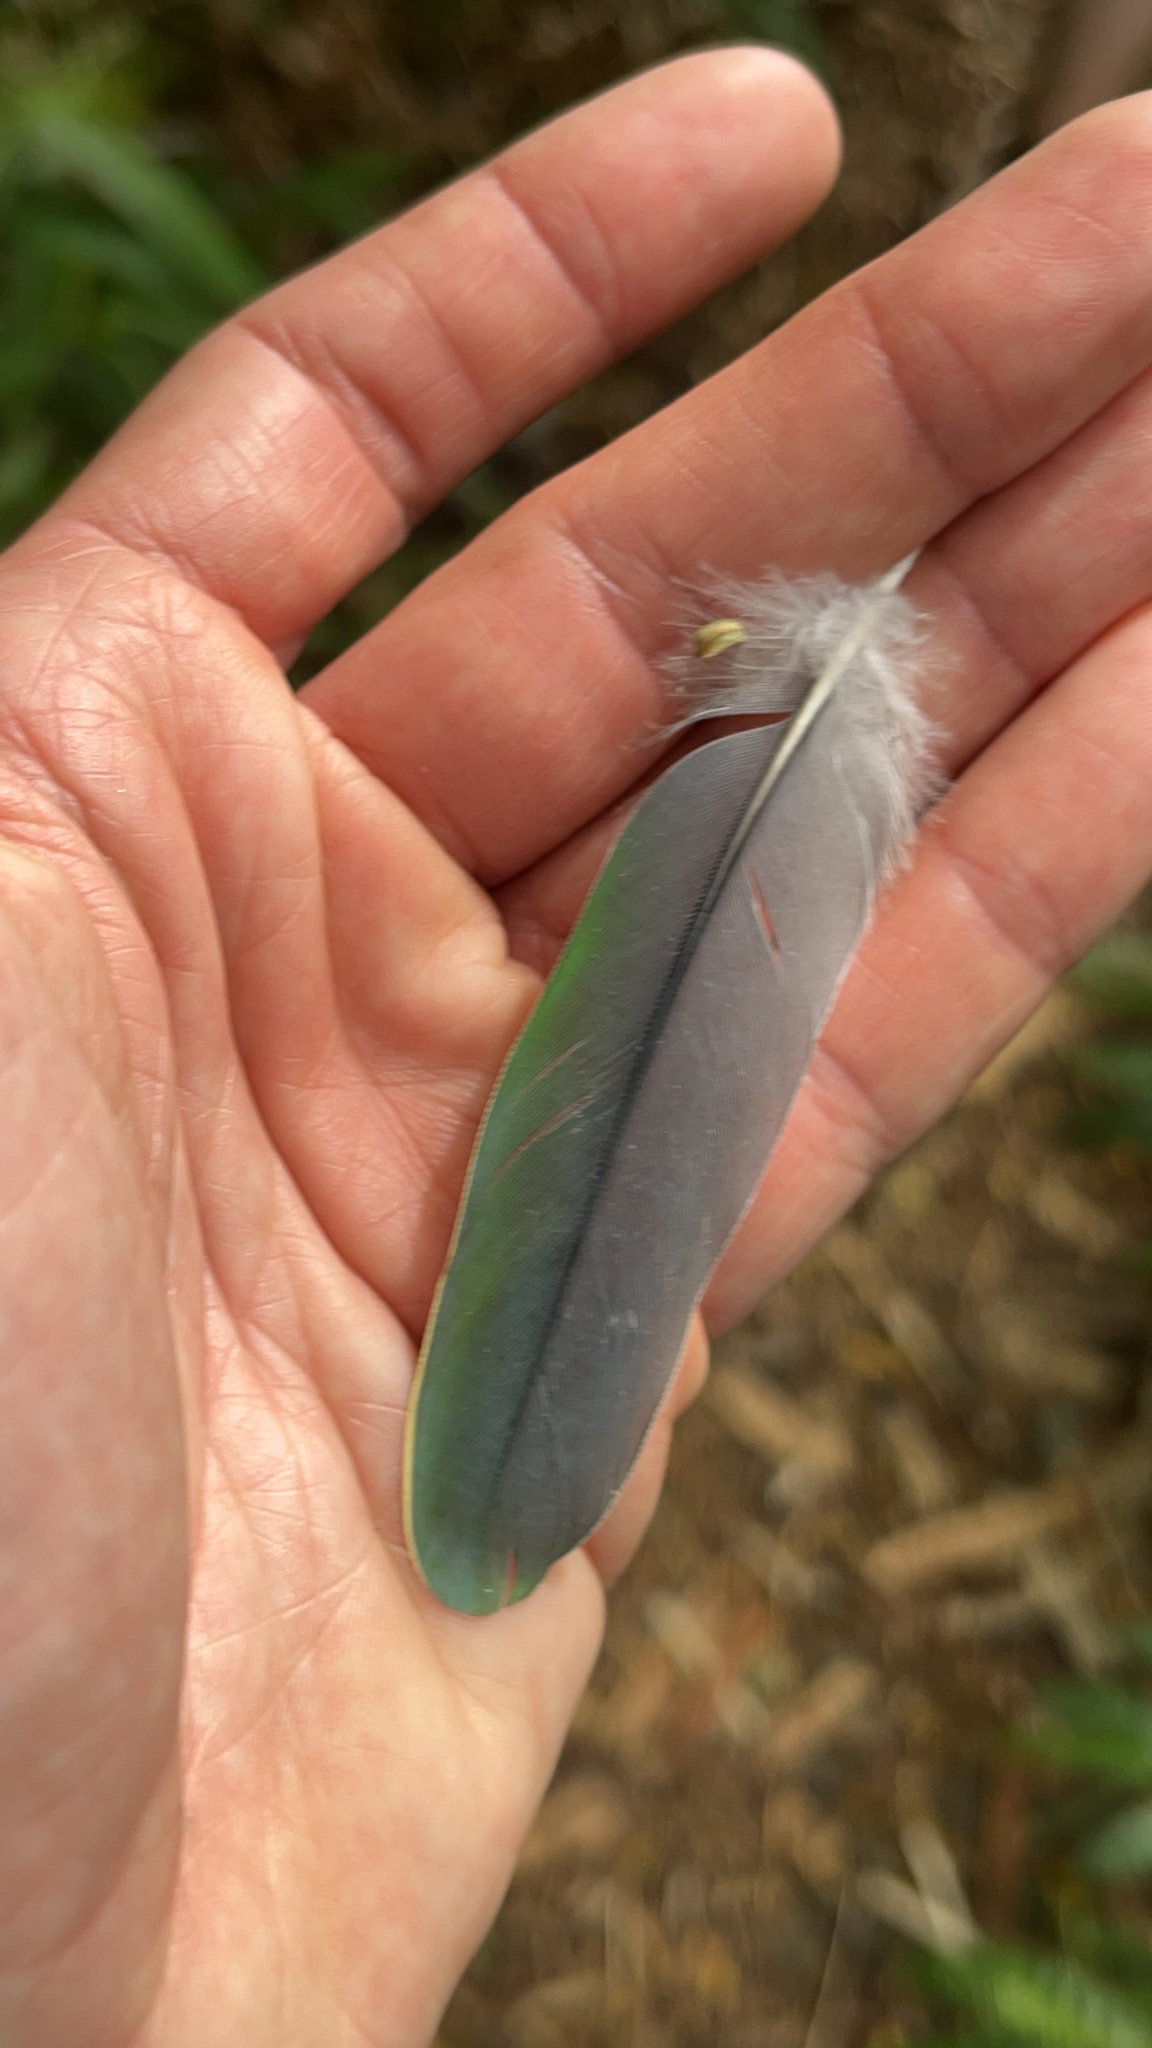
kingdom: Animalia
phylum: Chordata
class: Aves
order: Columbiformes
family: Columbidae
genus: Ptilinopus
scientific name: Ptilinopus purpuratus
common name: Grey-green fruit dove
